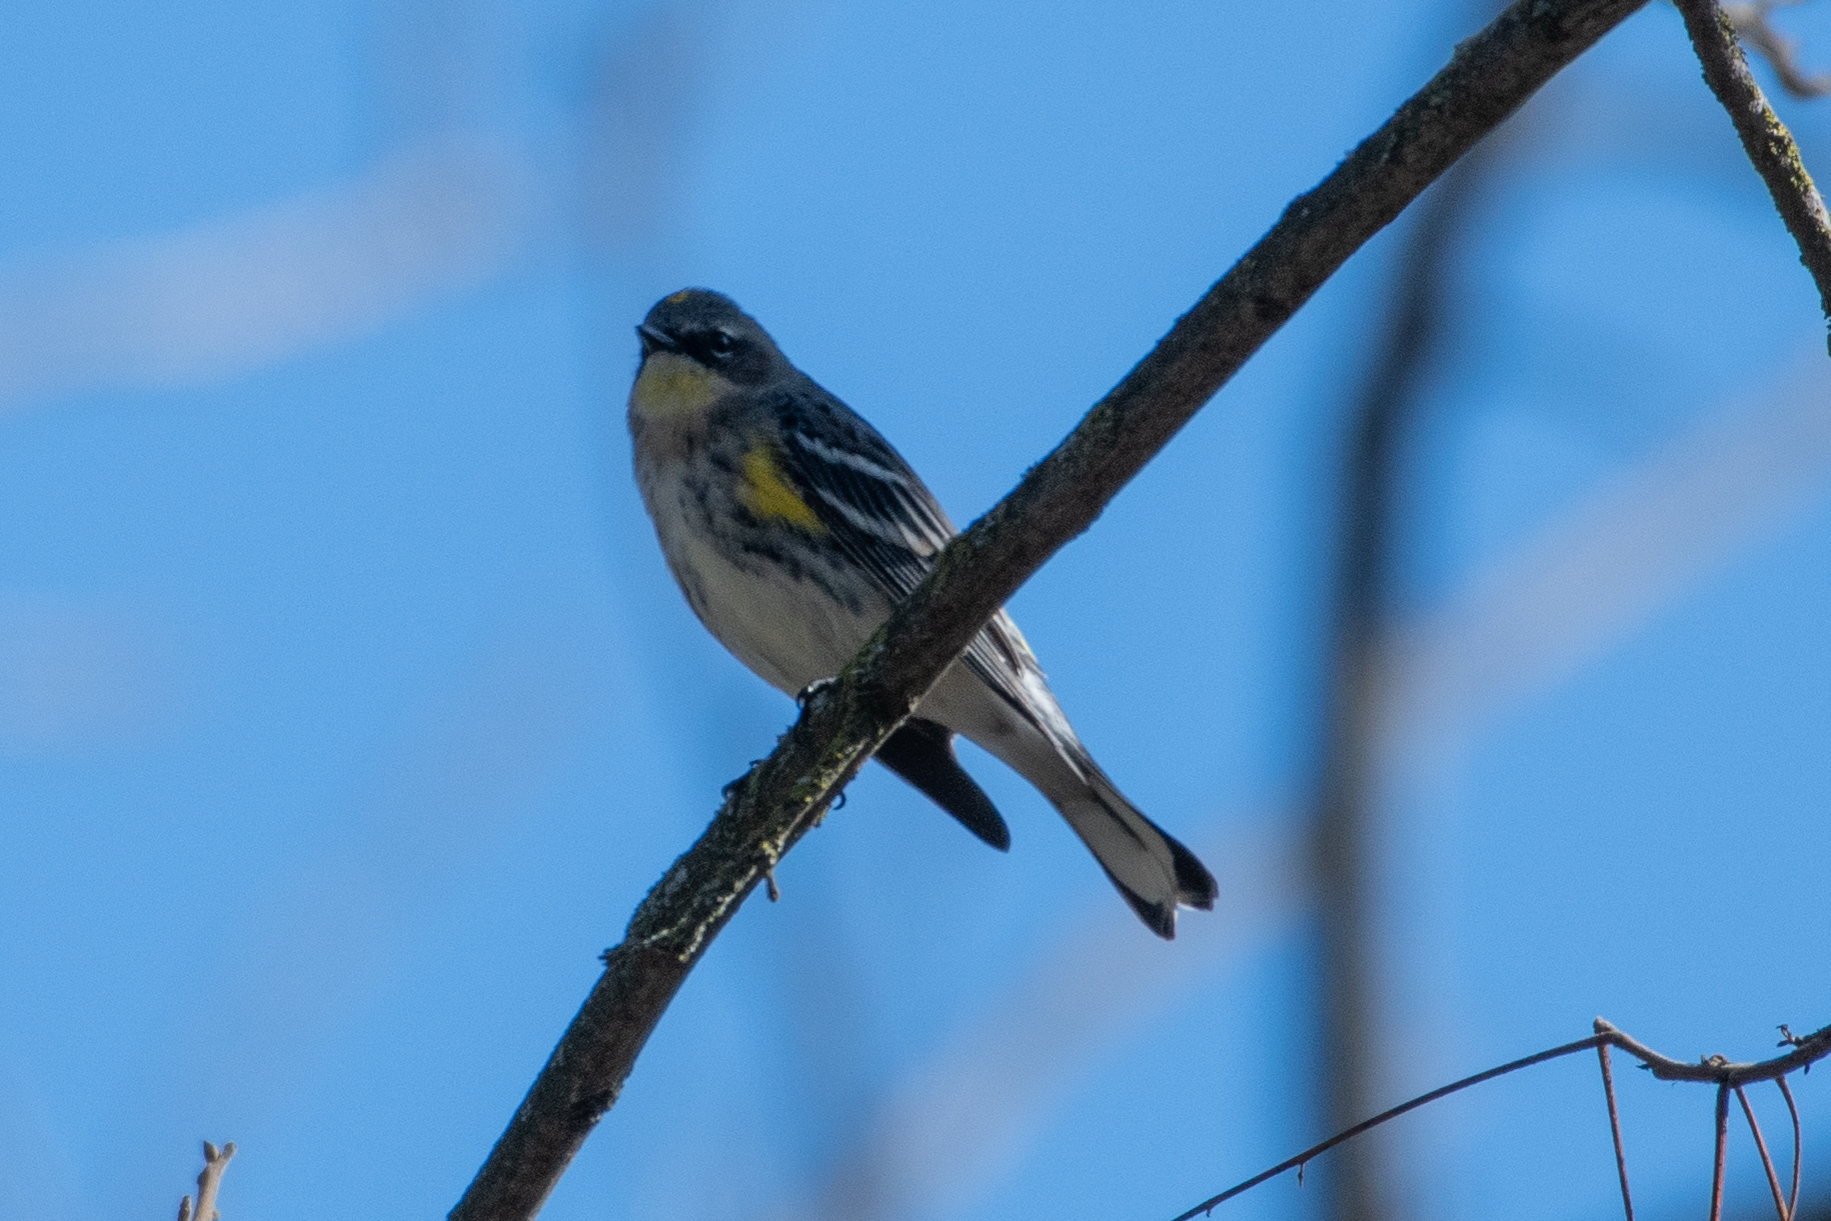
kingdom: Animalia
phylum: Chordata
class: Aves
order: Passeriformes
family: Parulidae
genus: Setophaga
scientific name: Setophaga coronata
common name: Myrtle warbler
